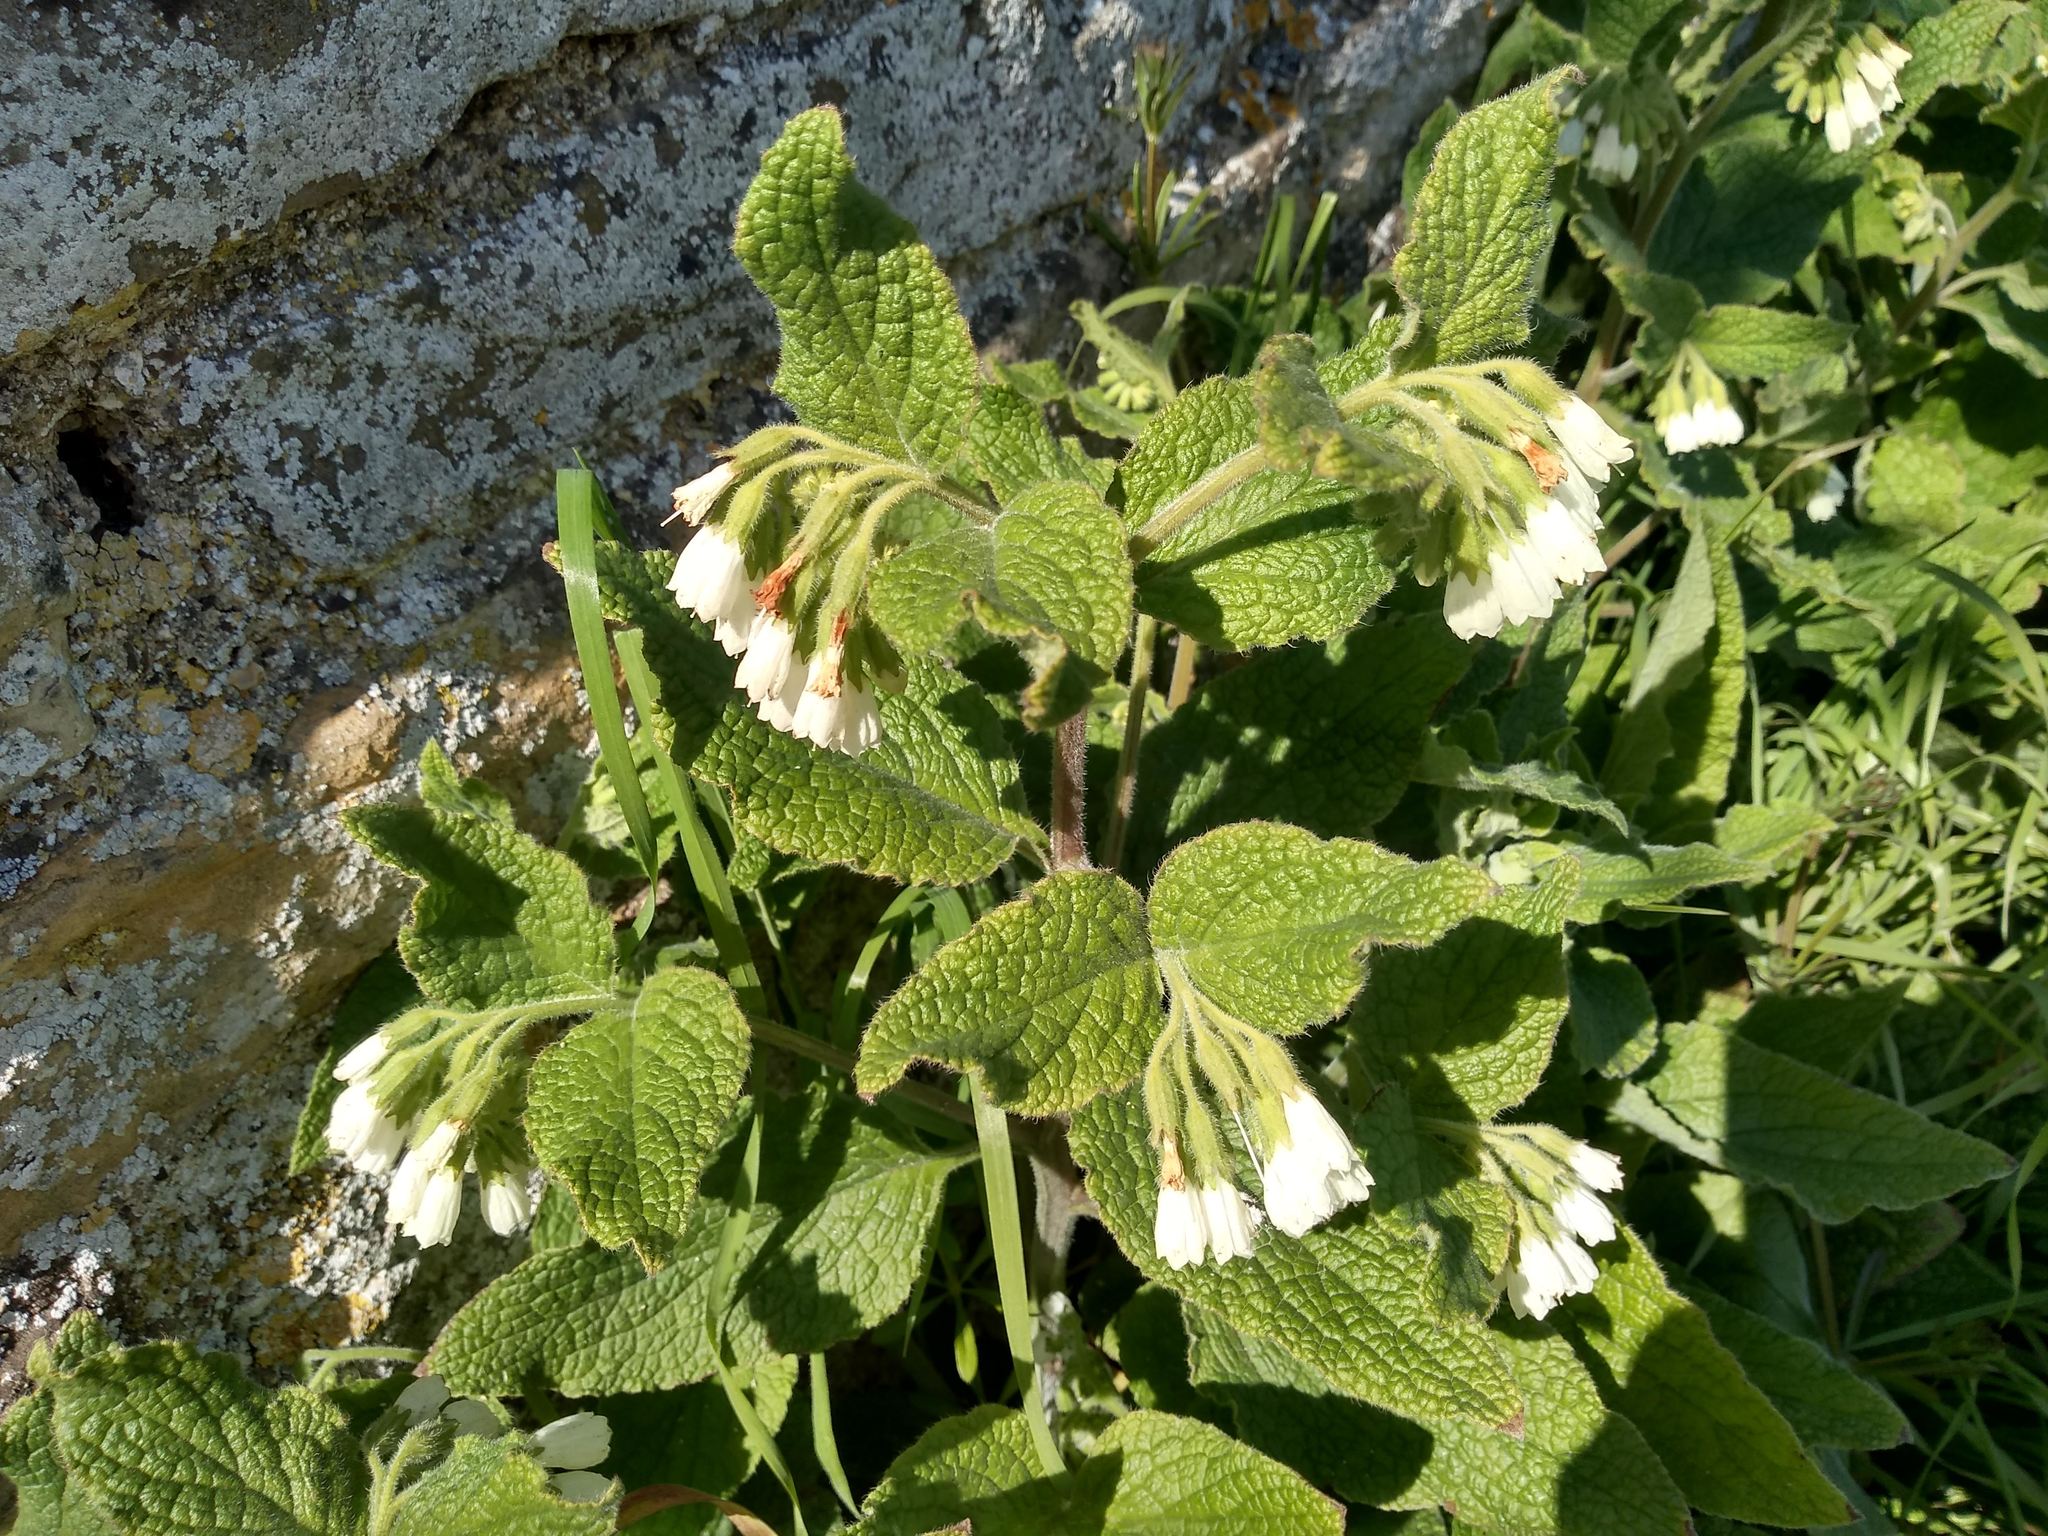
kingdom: Plantae
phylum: Tracheophyta
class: Magnoliopsida
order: Boraginales
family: Boraginaceae
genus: Symphytum
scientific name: Symphytum orientale
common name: White comfrey
